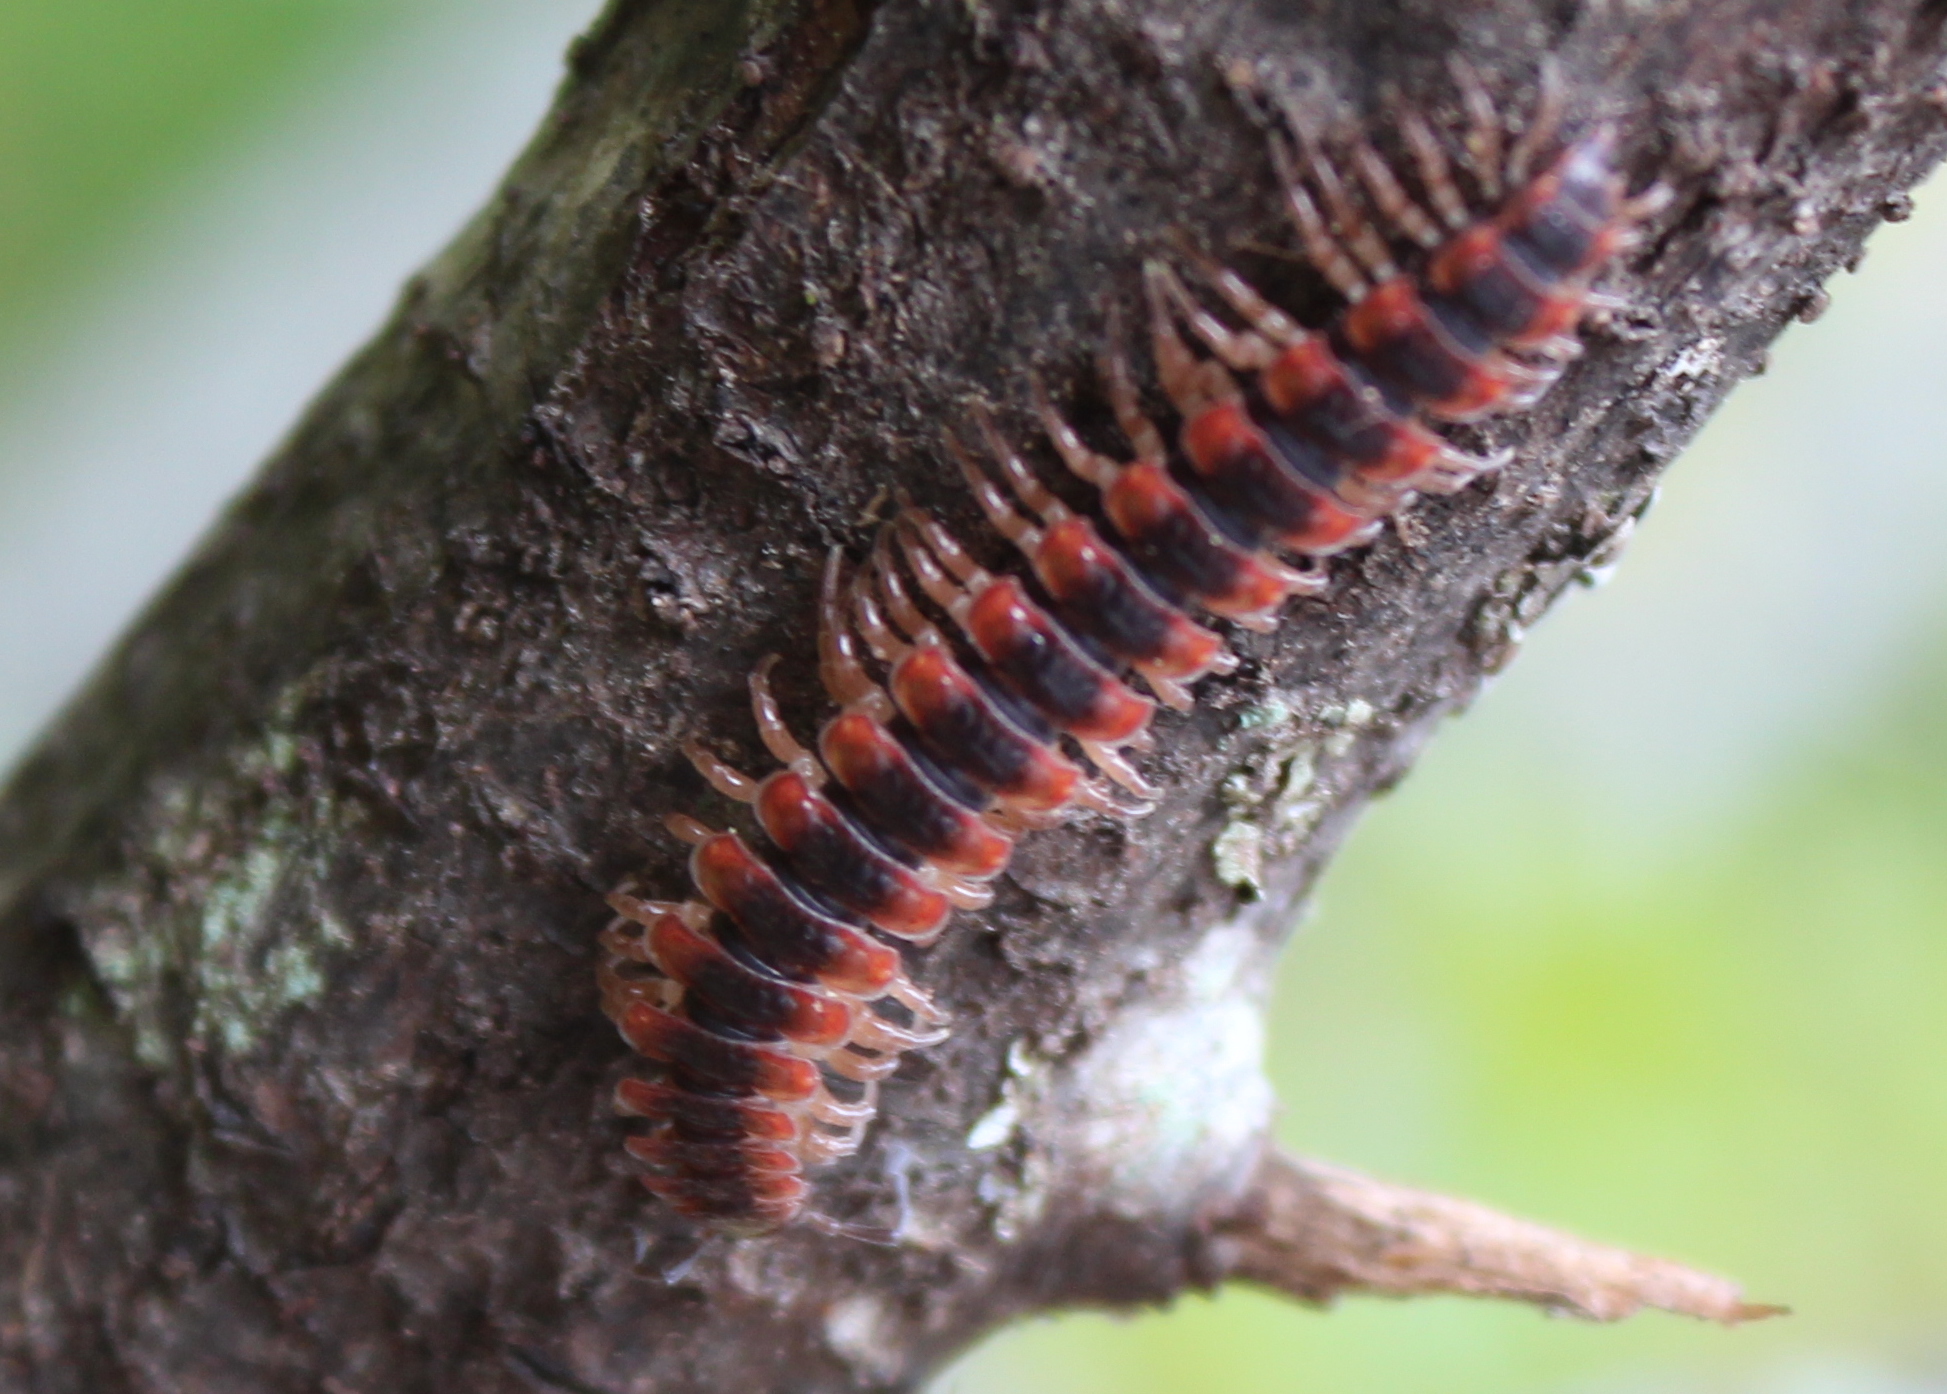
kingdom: Animalia
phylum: Arthropoda
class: Diplopoda
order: Polydesmida
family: Polydesmidae
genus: Pseudopolydesmus
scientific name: Pseudopolydesmus canadensis
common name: Canadian flat-back millipede
